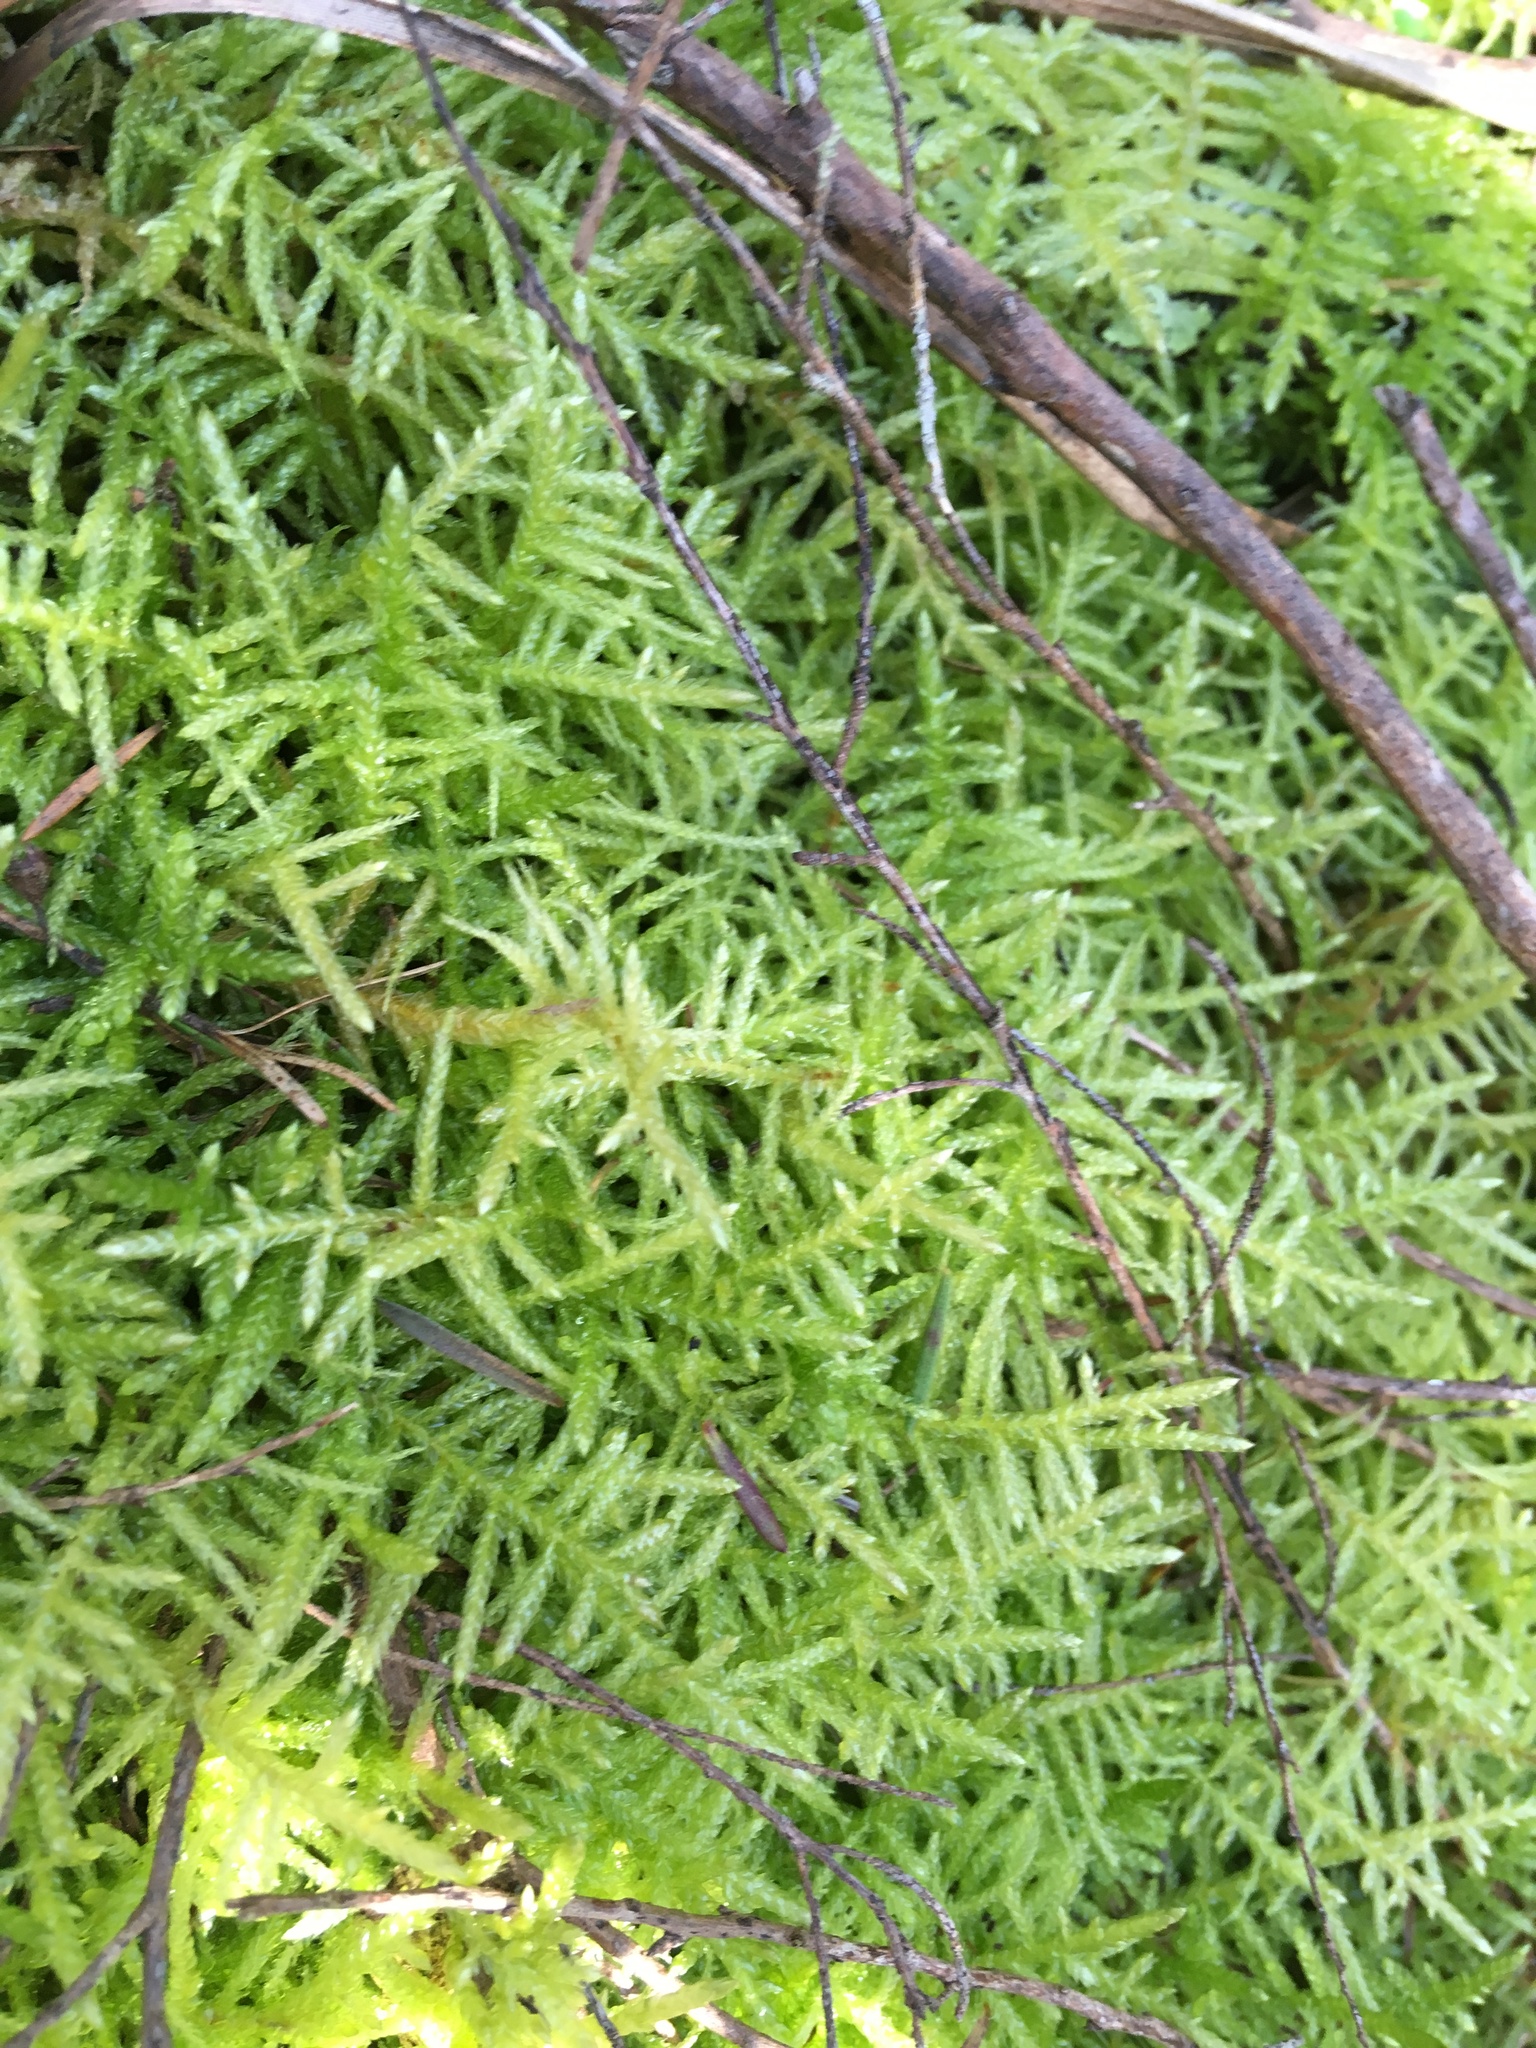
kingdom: Plantae
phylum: Bryophyta
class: Bryopsida
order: Hypnales
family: Brachytheciaceae
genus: Pseudoscleropodium
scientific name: Pseudoscleropodium purum
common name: Neat feather-moss
